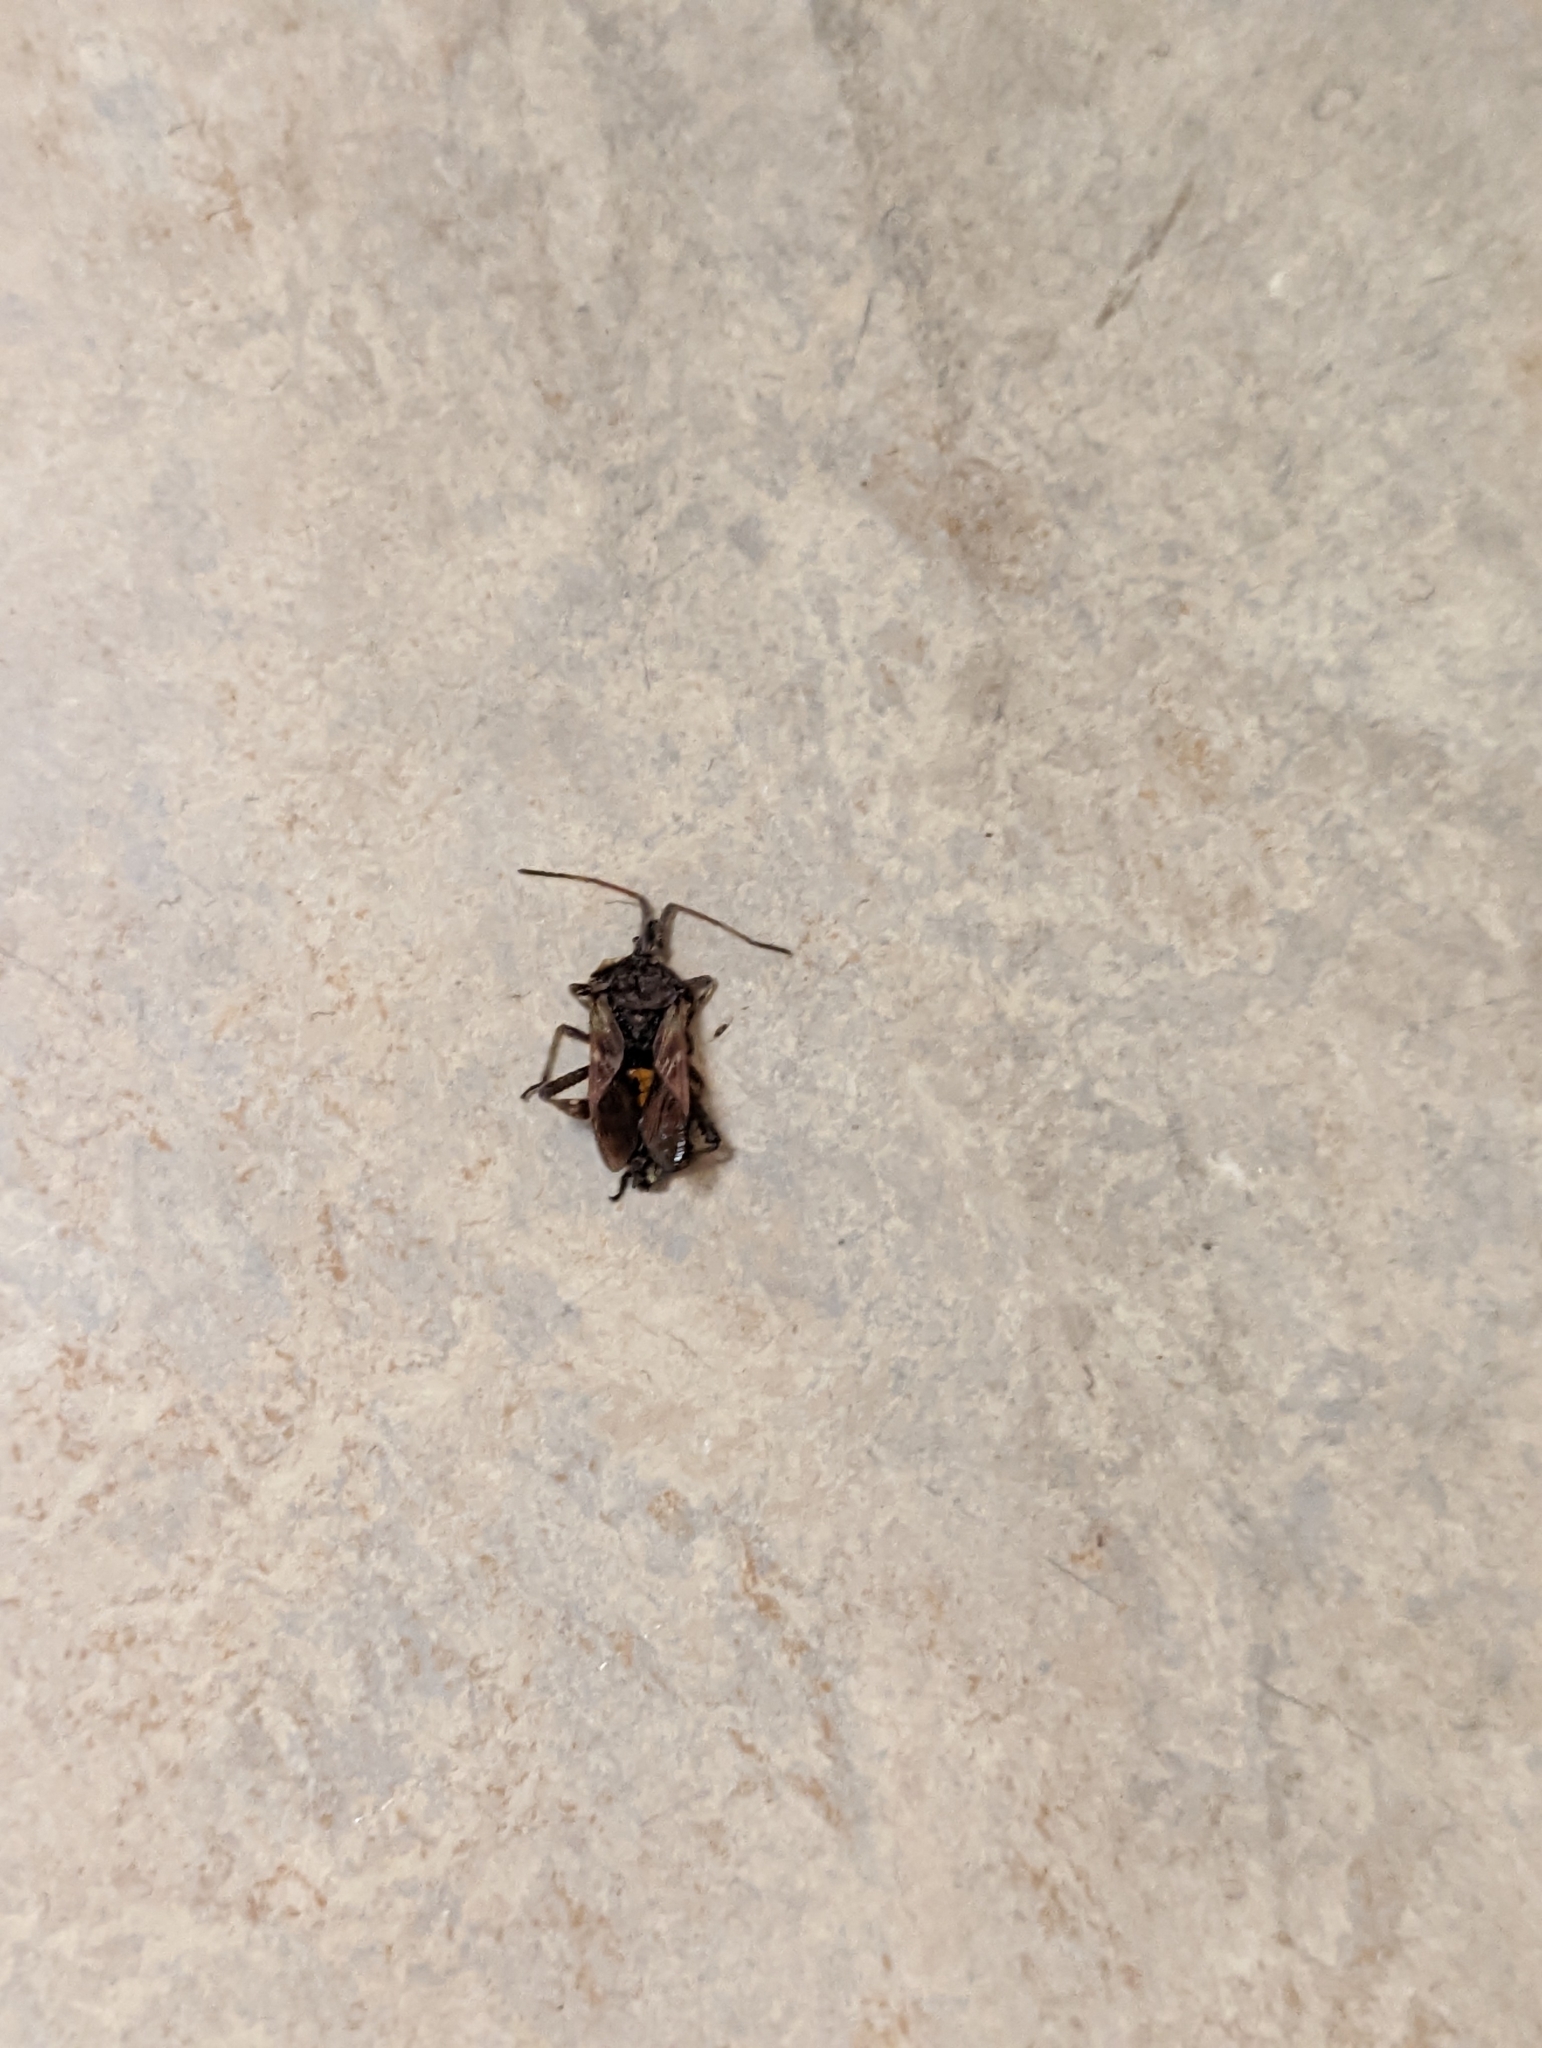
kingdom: Animalia
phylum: Arthropoda
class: Insecta
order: Hemiptera
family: Coreidae
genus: Leptoglossus
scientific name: Leptoglossus occidentalis
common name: Western conifer-seed bug
